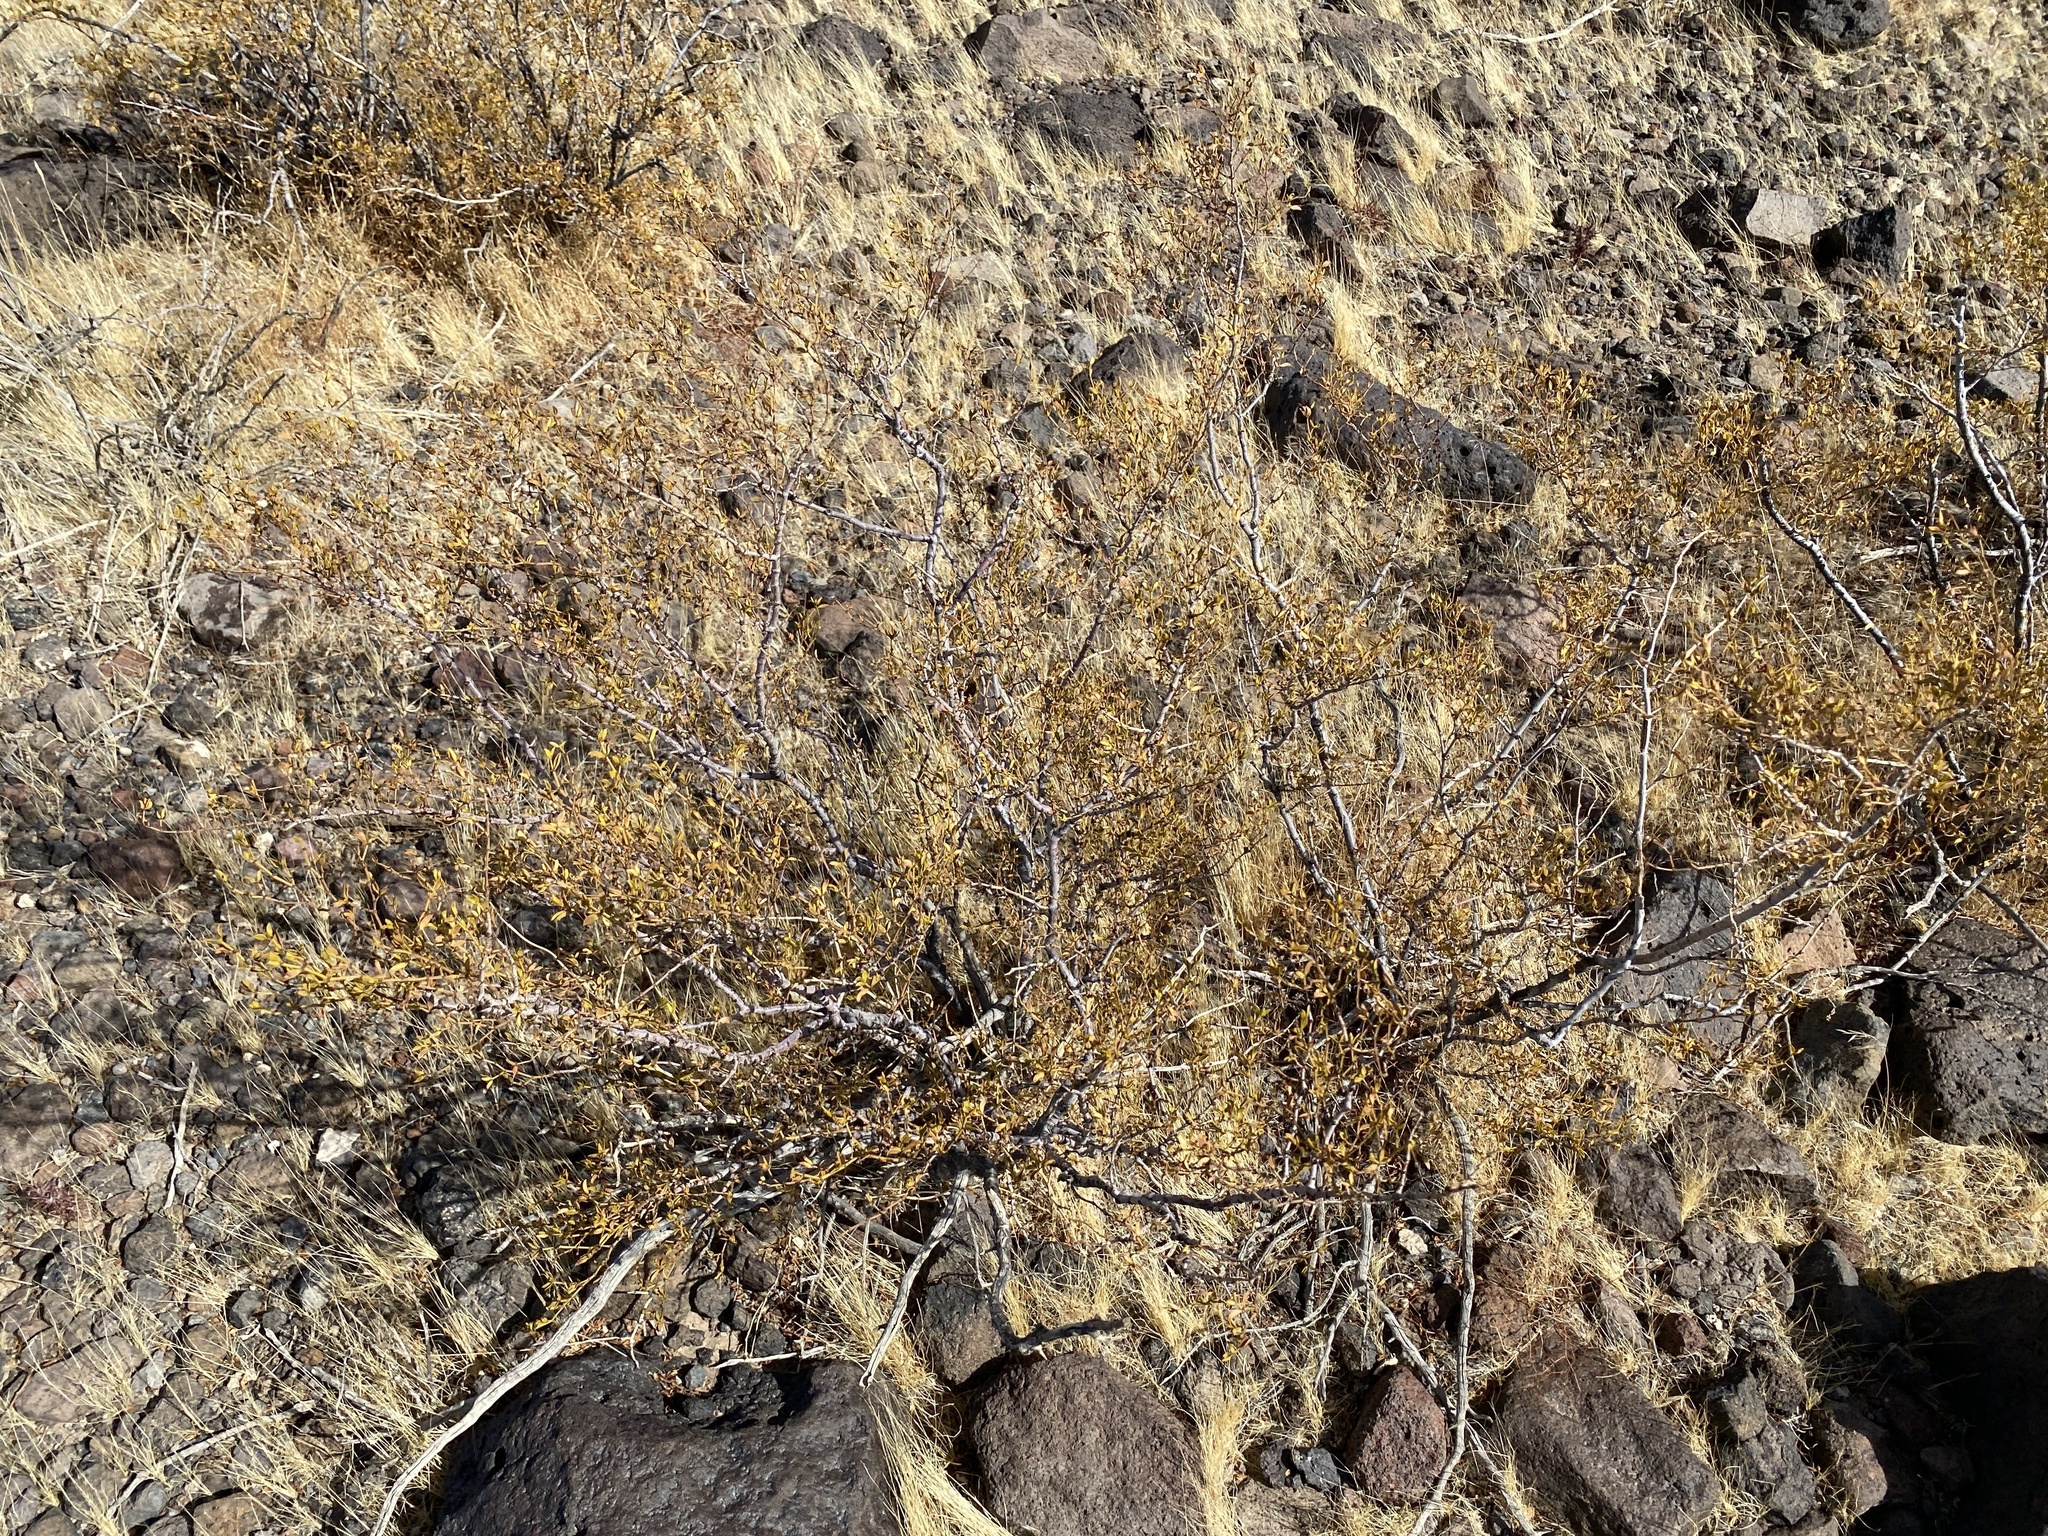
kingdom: Plantae
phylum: Tracheophyta
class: Magnoliopsida
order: Zygophyllales
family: Zygophyllaceae
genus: Larrea
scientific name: Larrea tridentata
